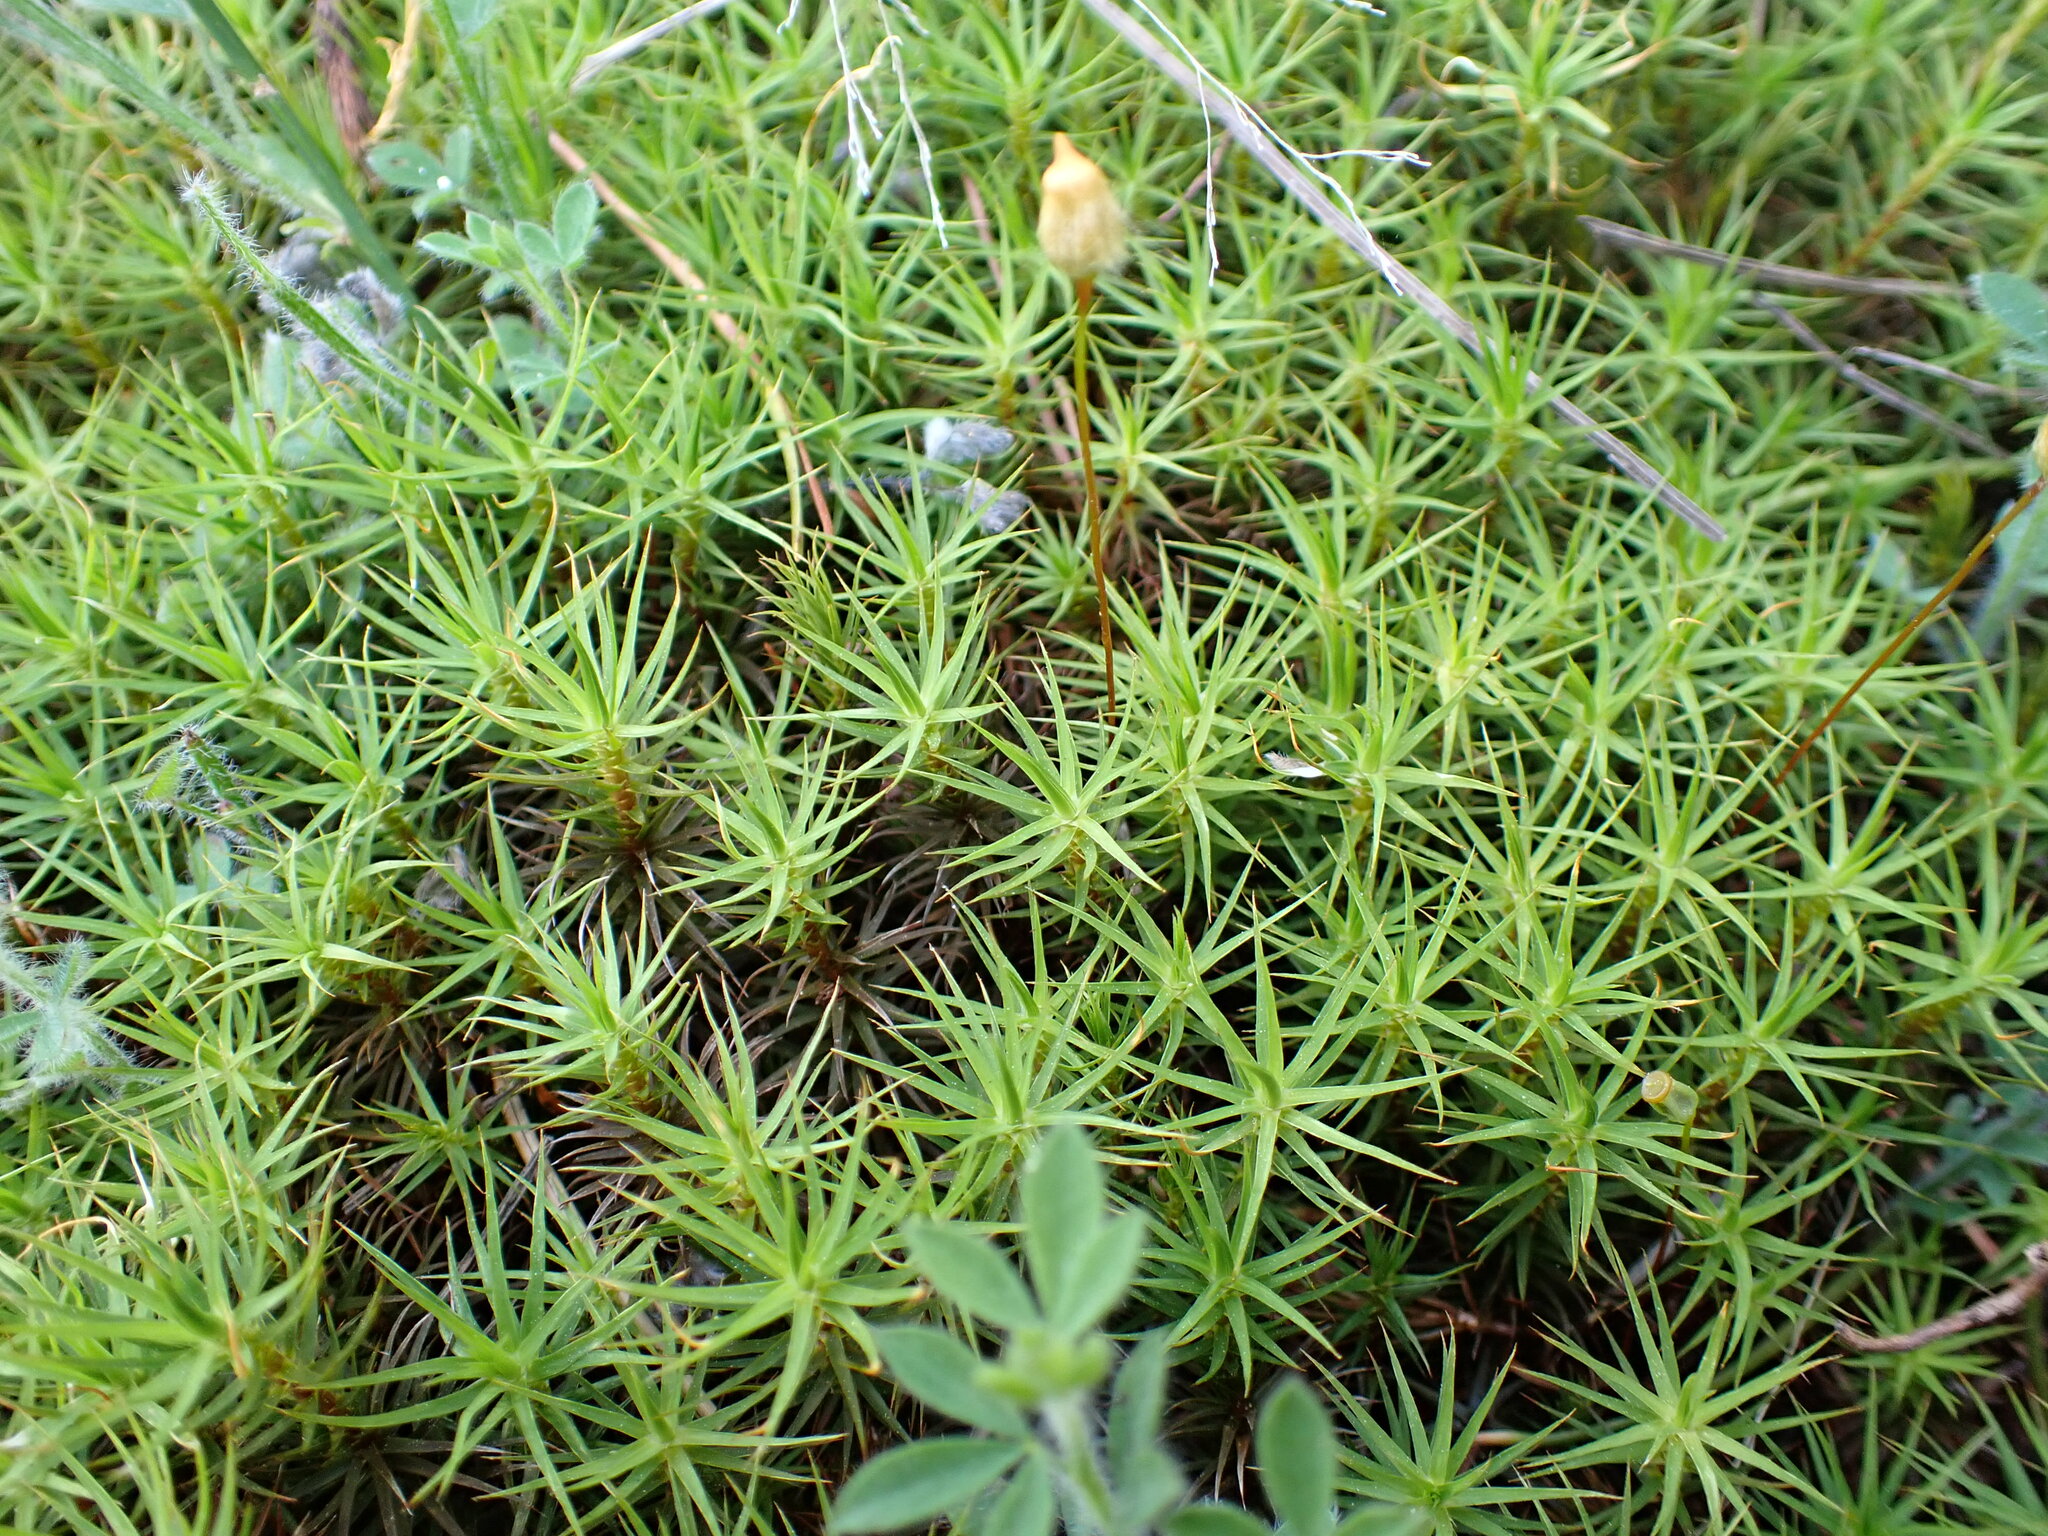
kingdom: Plantae
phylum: Bryophyta
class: Polytrichopsida
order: Polytrichales
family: Polytrichaceae
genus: Polytrichum
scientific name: Polytrichum commune
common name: Common haircap
